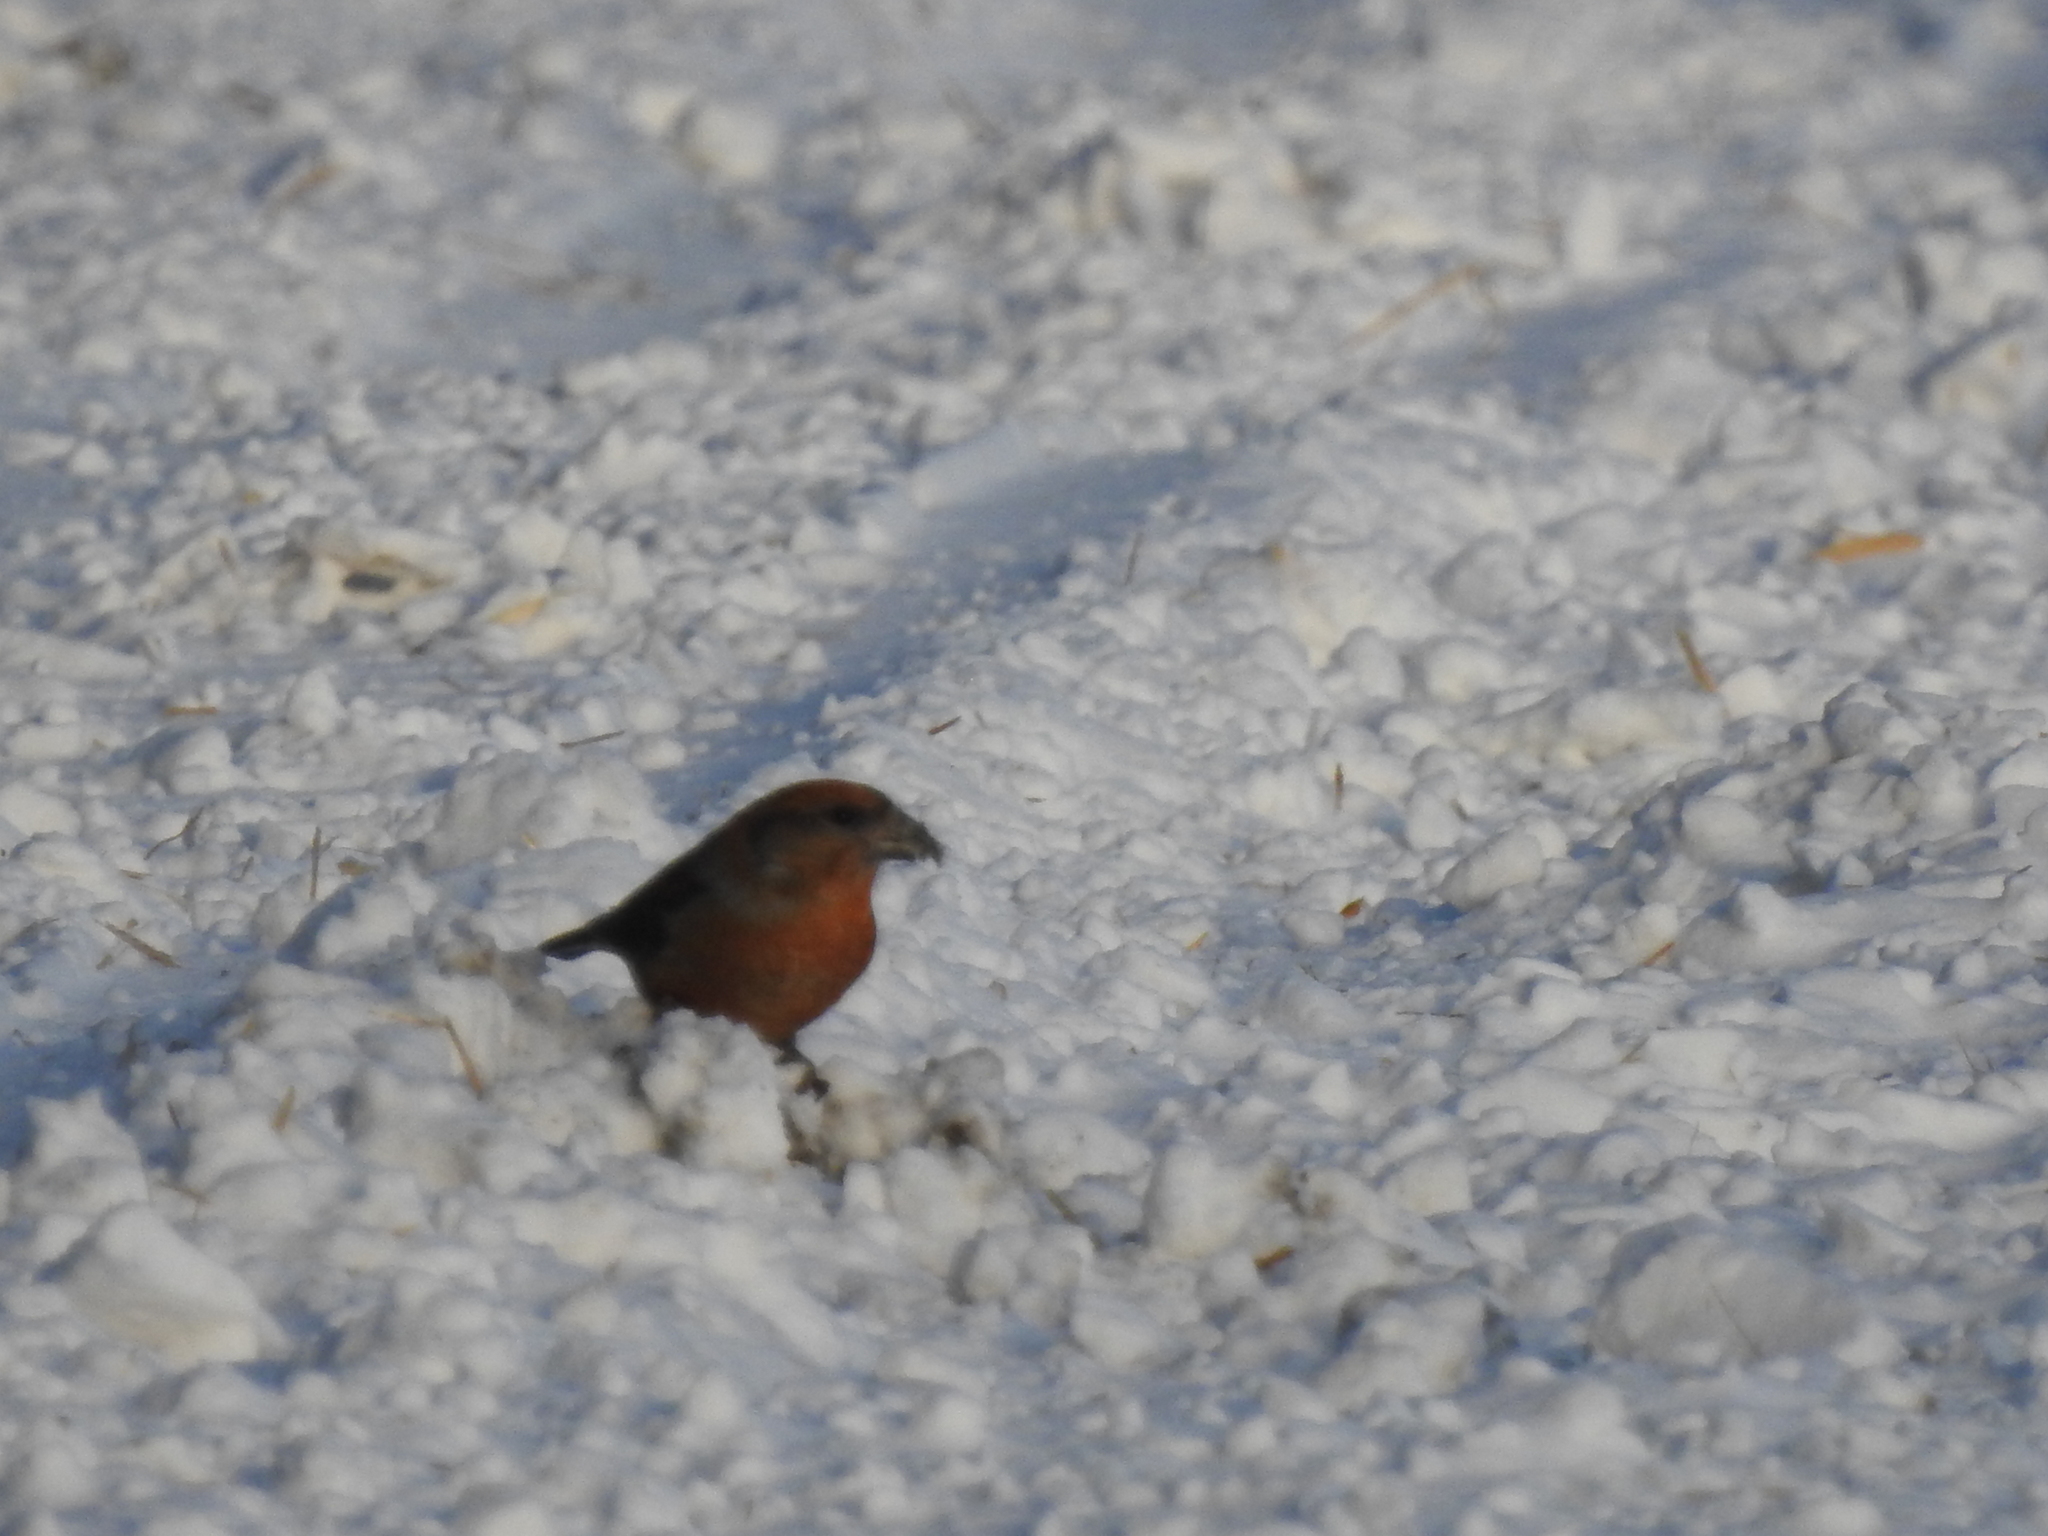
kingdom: Animalia
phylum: Chordata
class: Aves
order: Passeriformes
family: Fringillidae
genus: Loxia
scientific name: Loxia curvirostra
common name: Red crossbill
